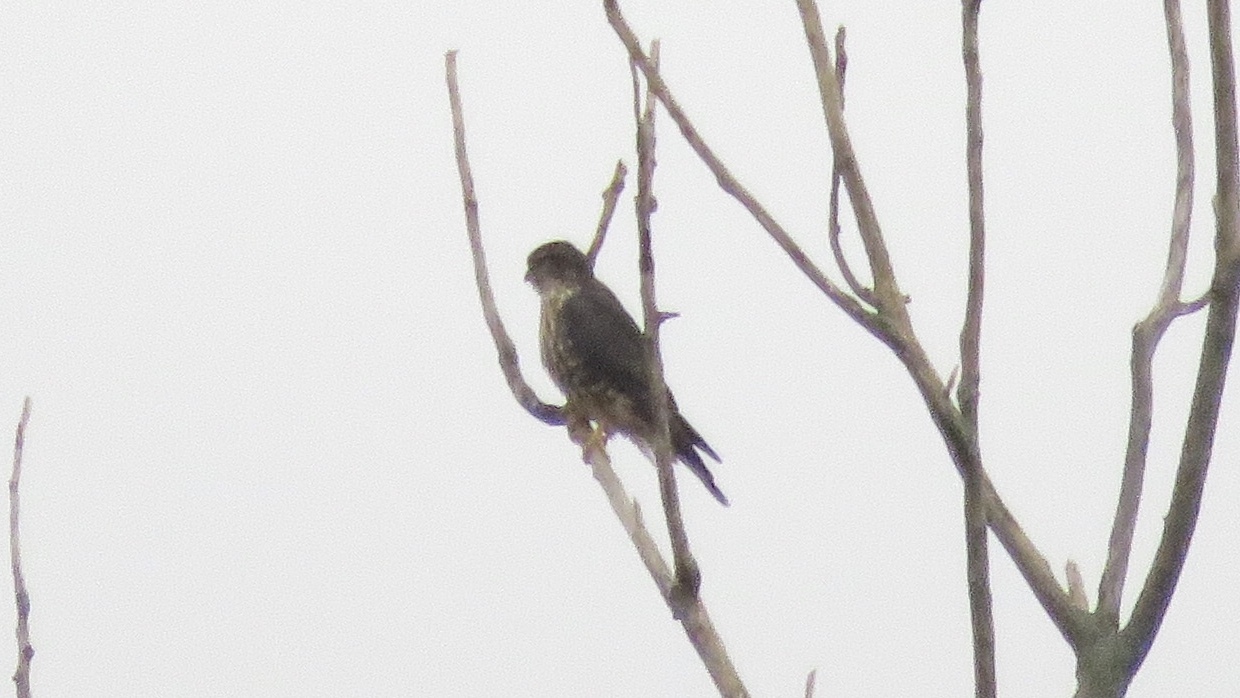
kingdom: Animalia
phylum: Chordata
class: Aves
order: Falconiformes
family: Falconidae
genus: Falco
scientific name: Falco columbarius
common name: Merlin
